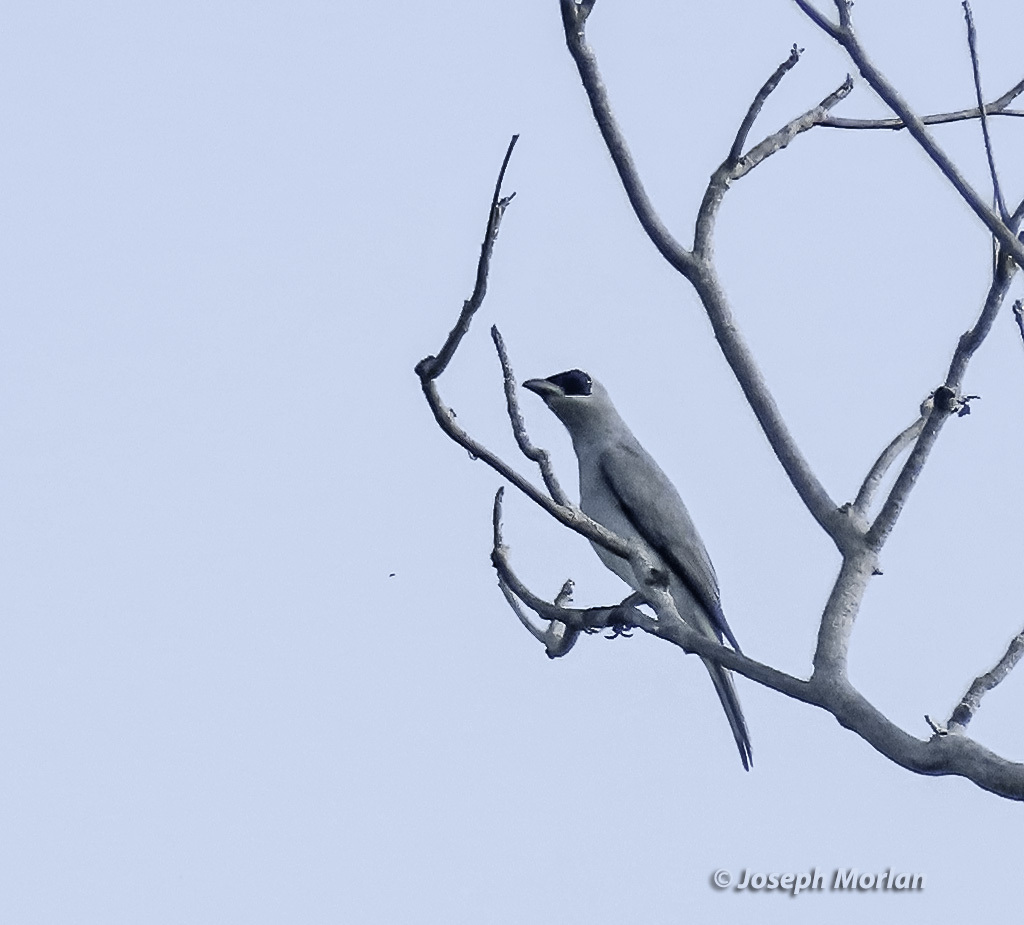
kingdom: Animalia
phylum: Chordata
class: Aves
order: Passeriformes
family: Campephagidae
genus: Coracina
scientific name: Coracina papuensis
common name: White-bellied cuckooshrike
